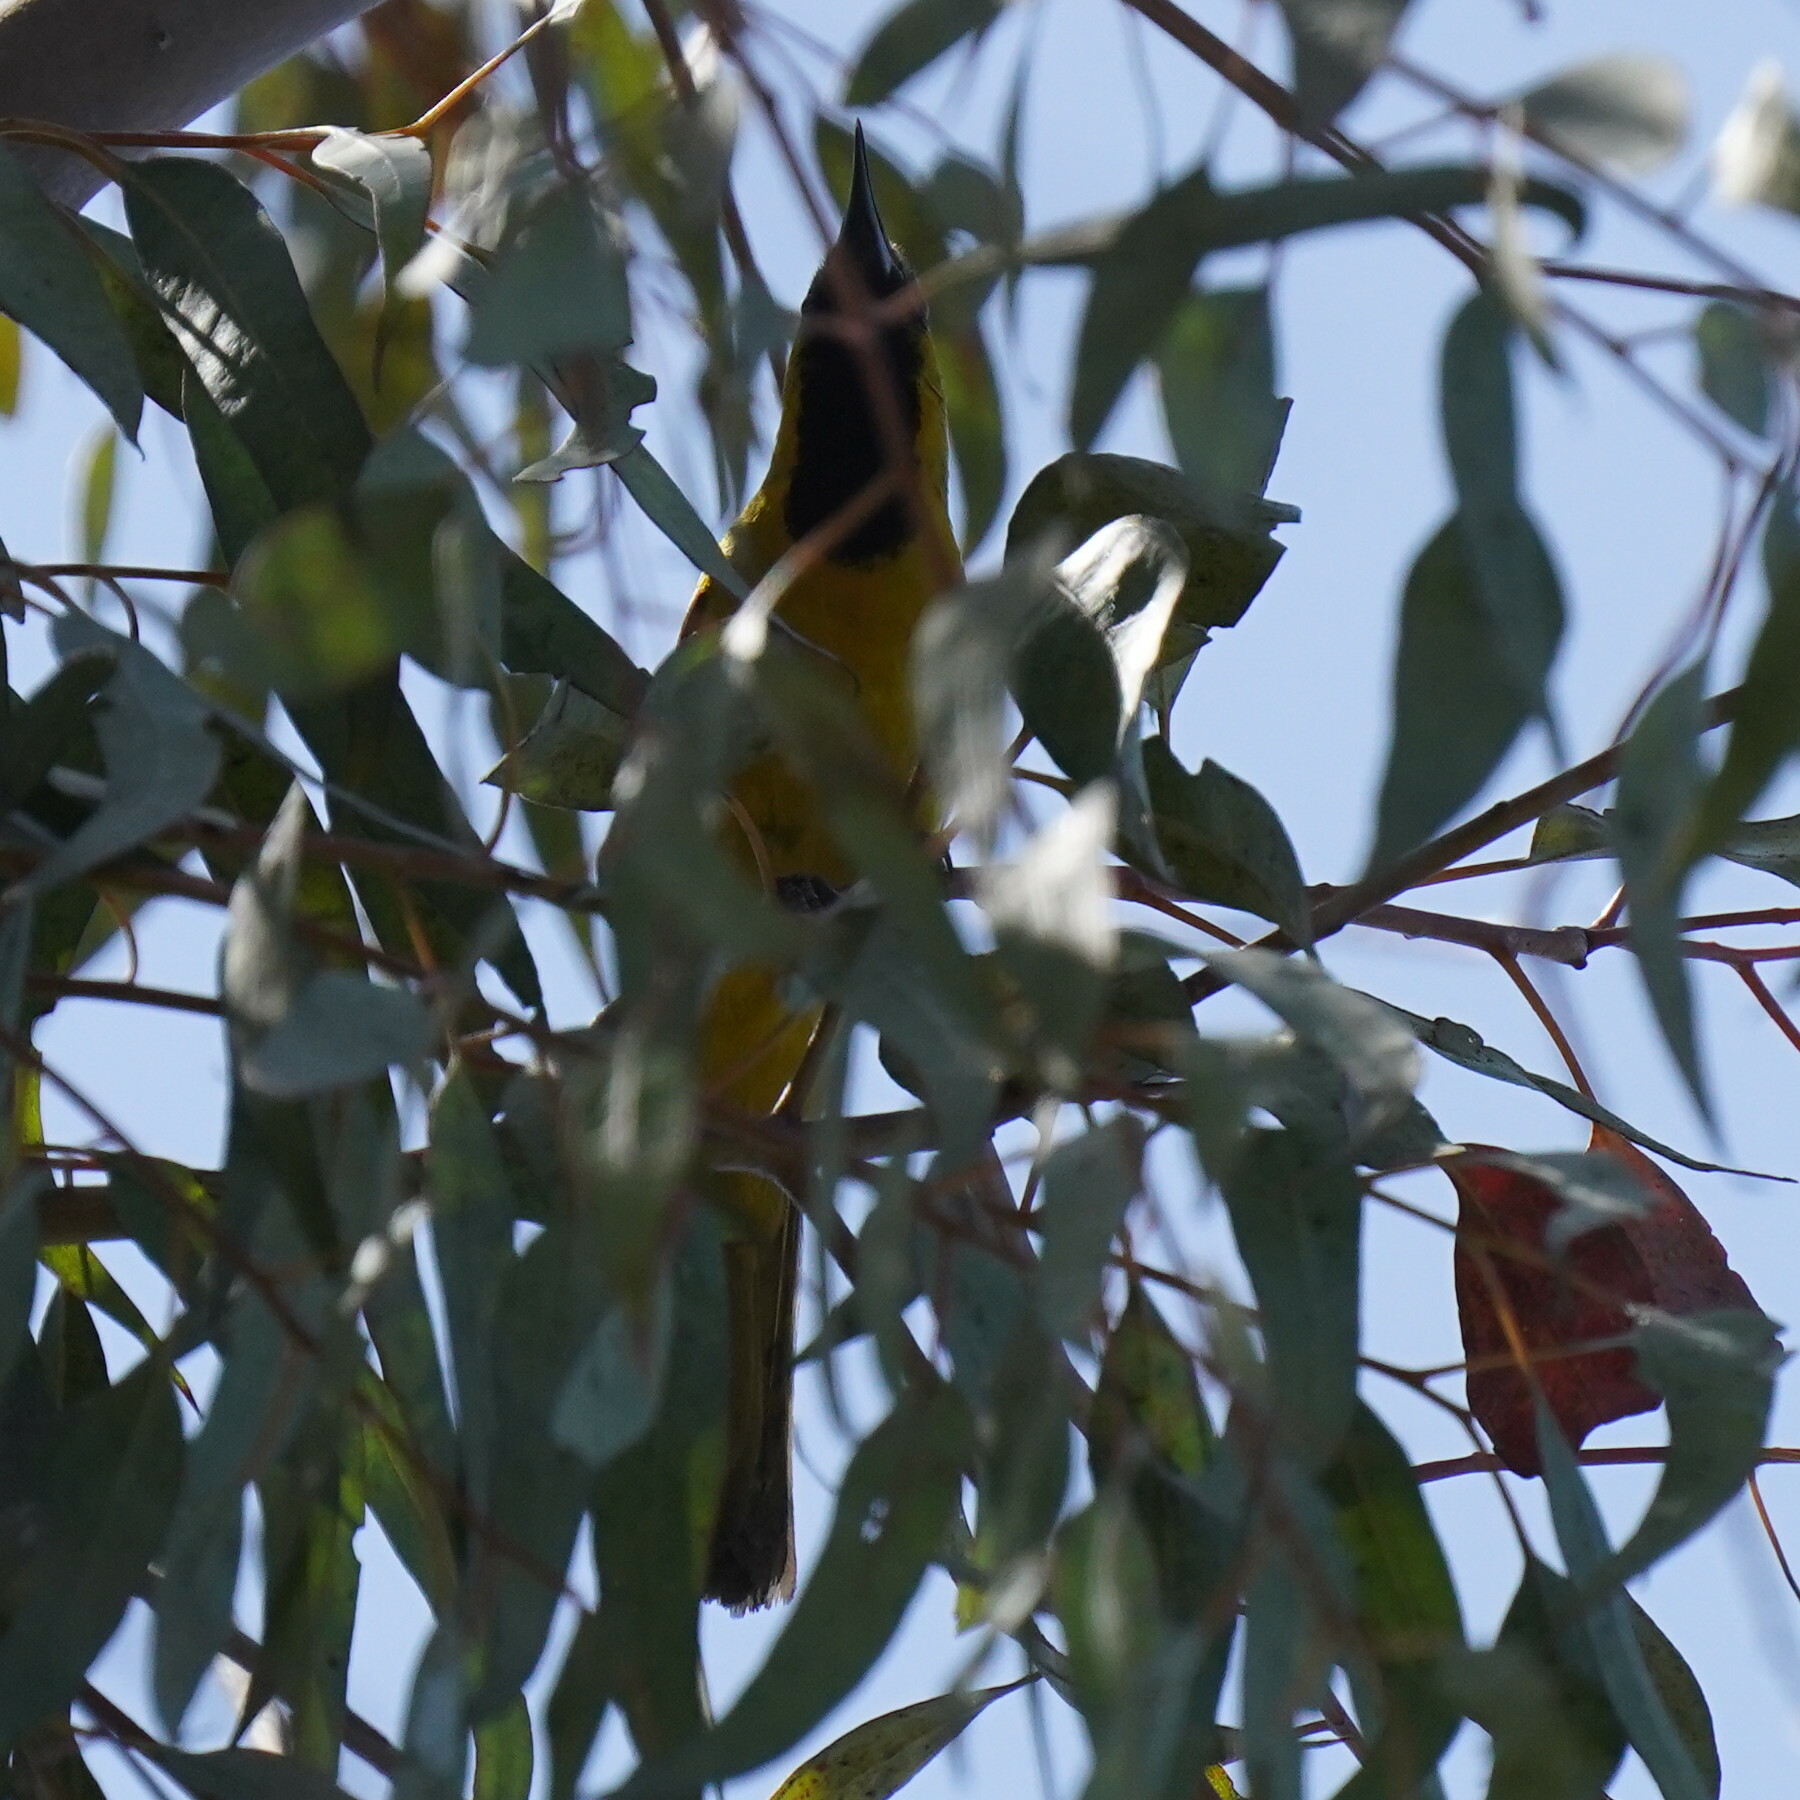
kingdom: Animalia
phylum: Chordata
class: Aves
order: Passeriformes
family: Icteridae
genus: Icterus
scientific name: Icterus cucullatus
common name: Hooded oriole
